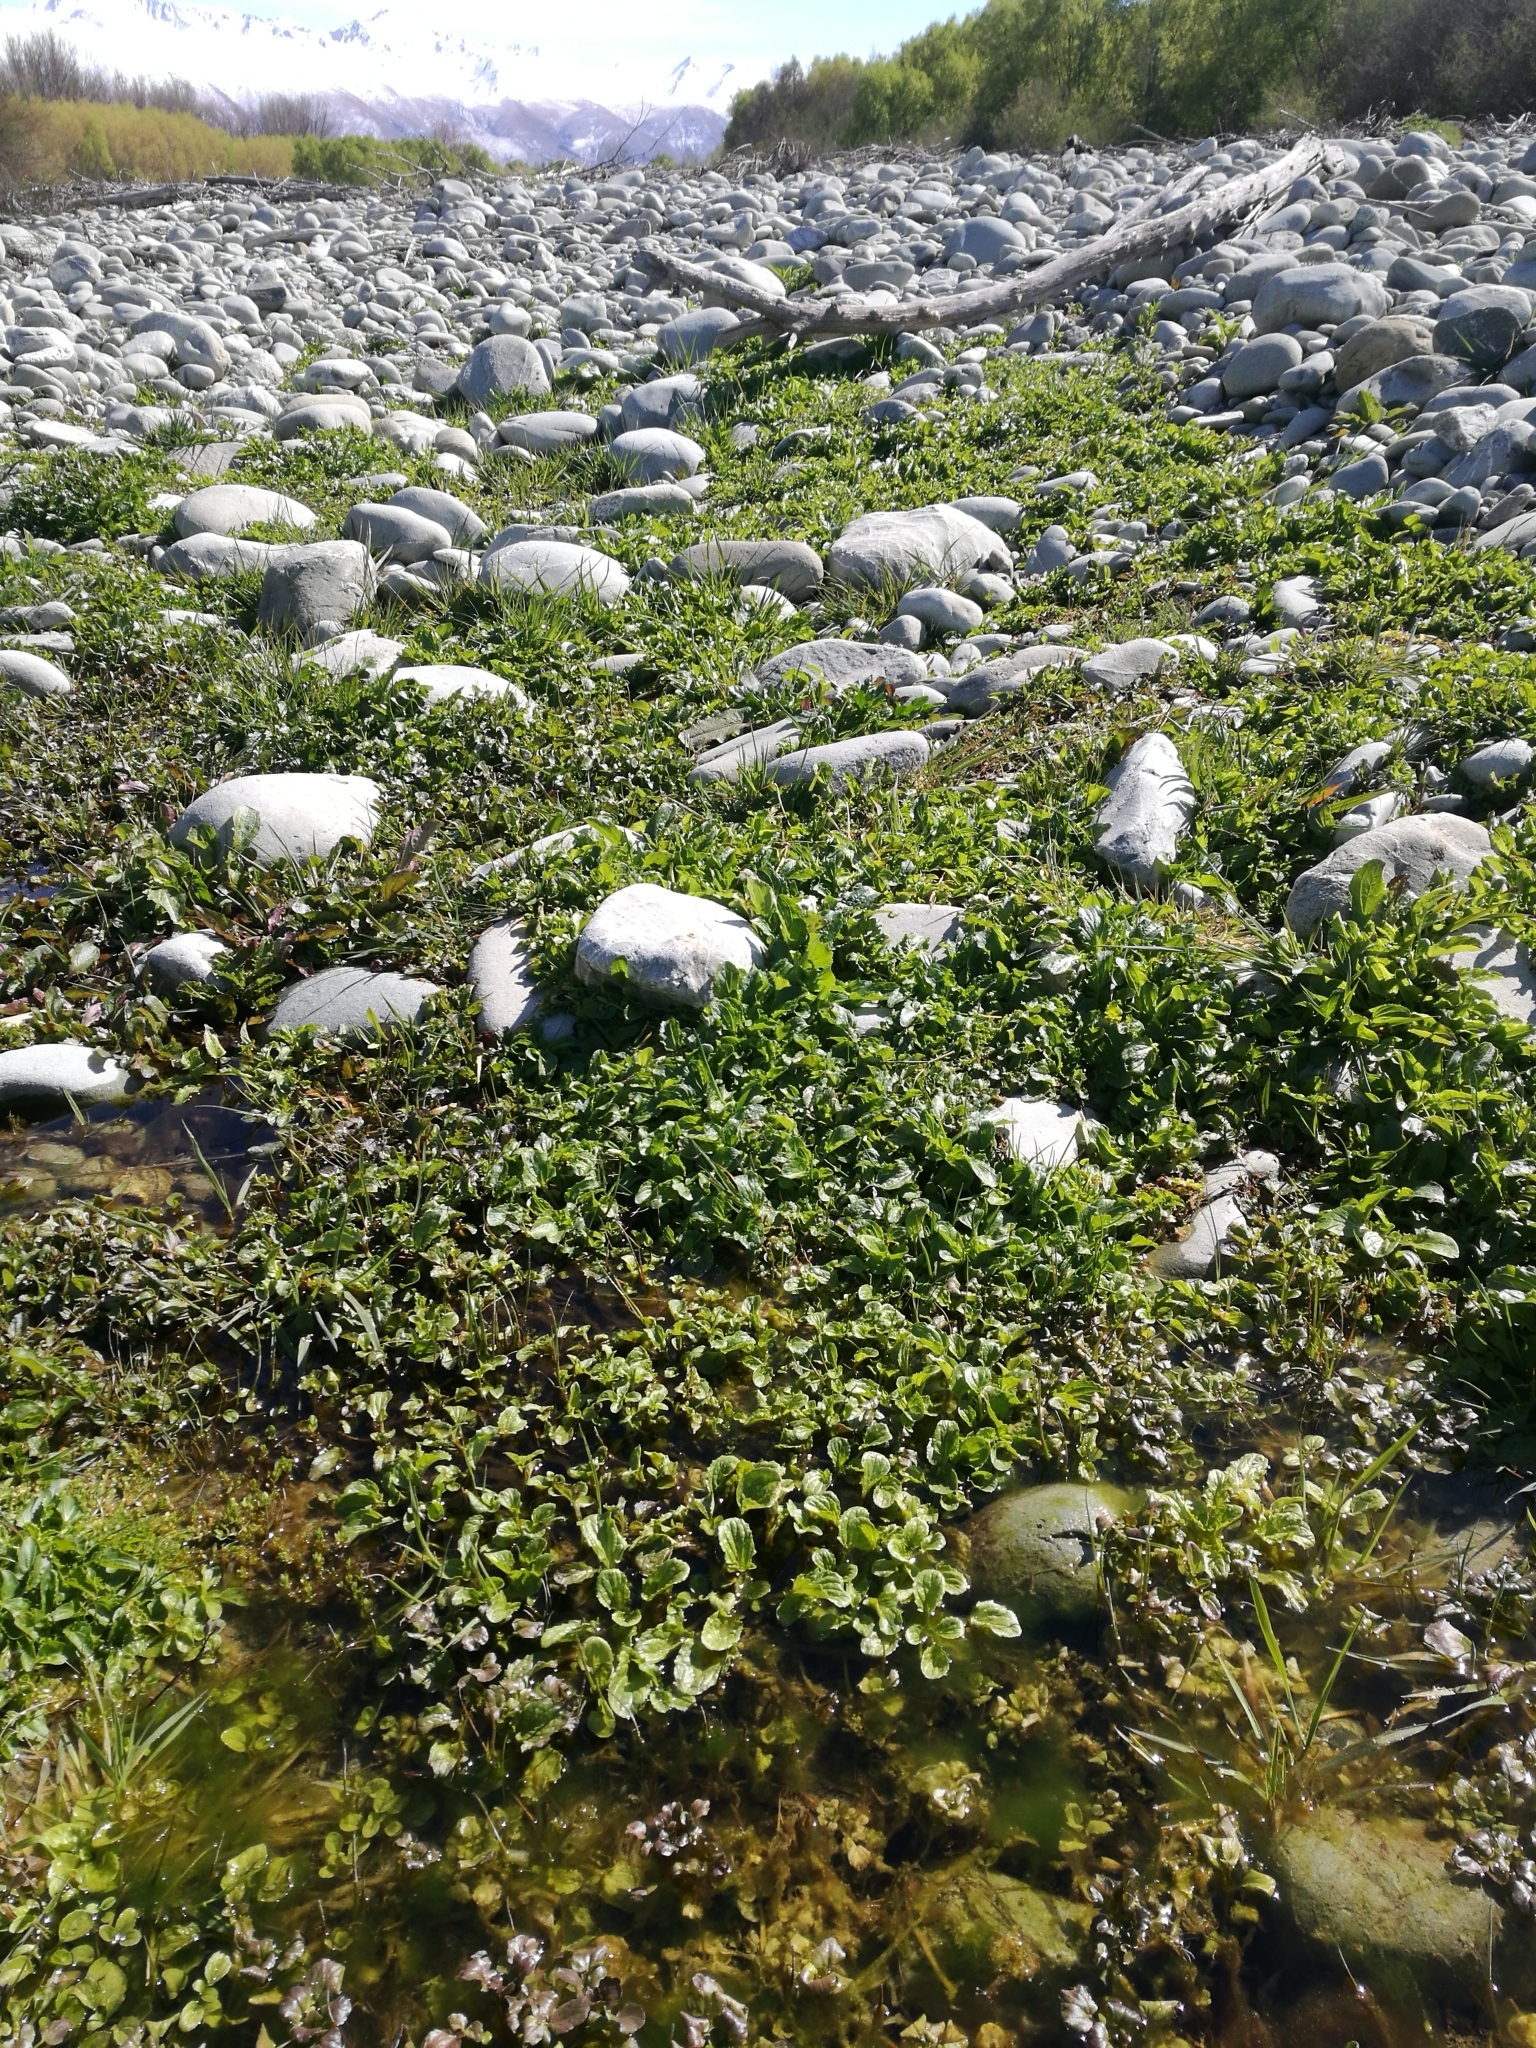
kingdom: Plantae
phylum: Tracheophyta
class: Magnoliopsida
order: Lamiales
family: Phrymaceae
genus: Erythranthe
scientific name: Erythranthe guttata
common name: Monkeyflower
